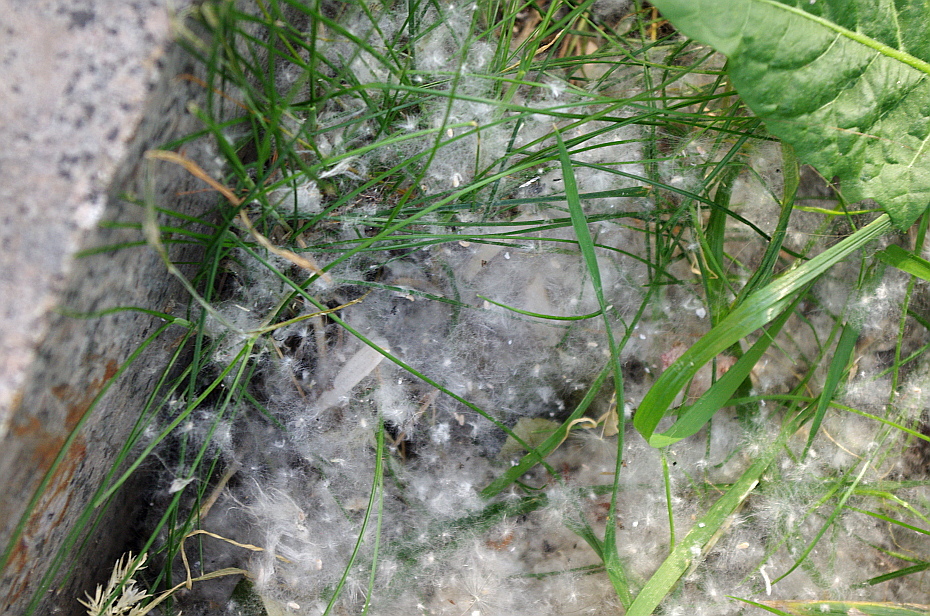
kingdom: Plantae
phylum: Tracheophyta
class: Magnoliopsida
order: Malpighiales
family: Salicaceae
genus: Populus
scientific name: Populus
